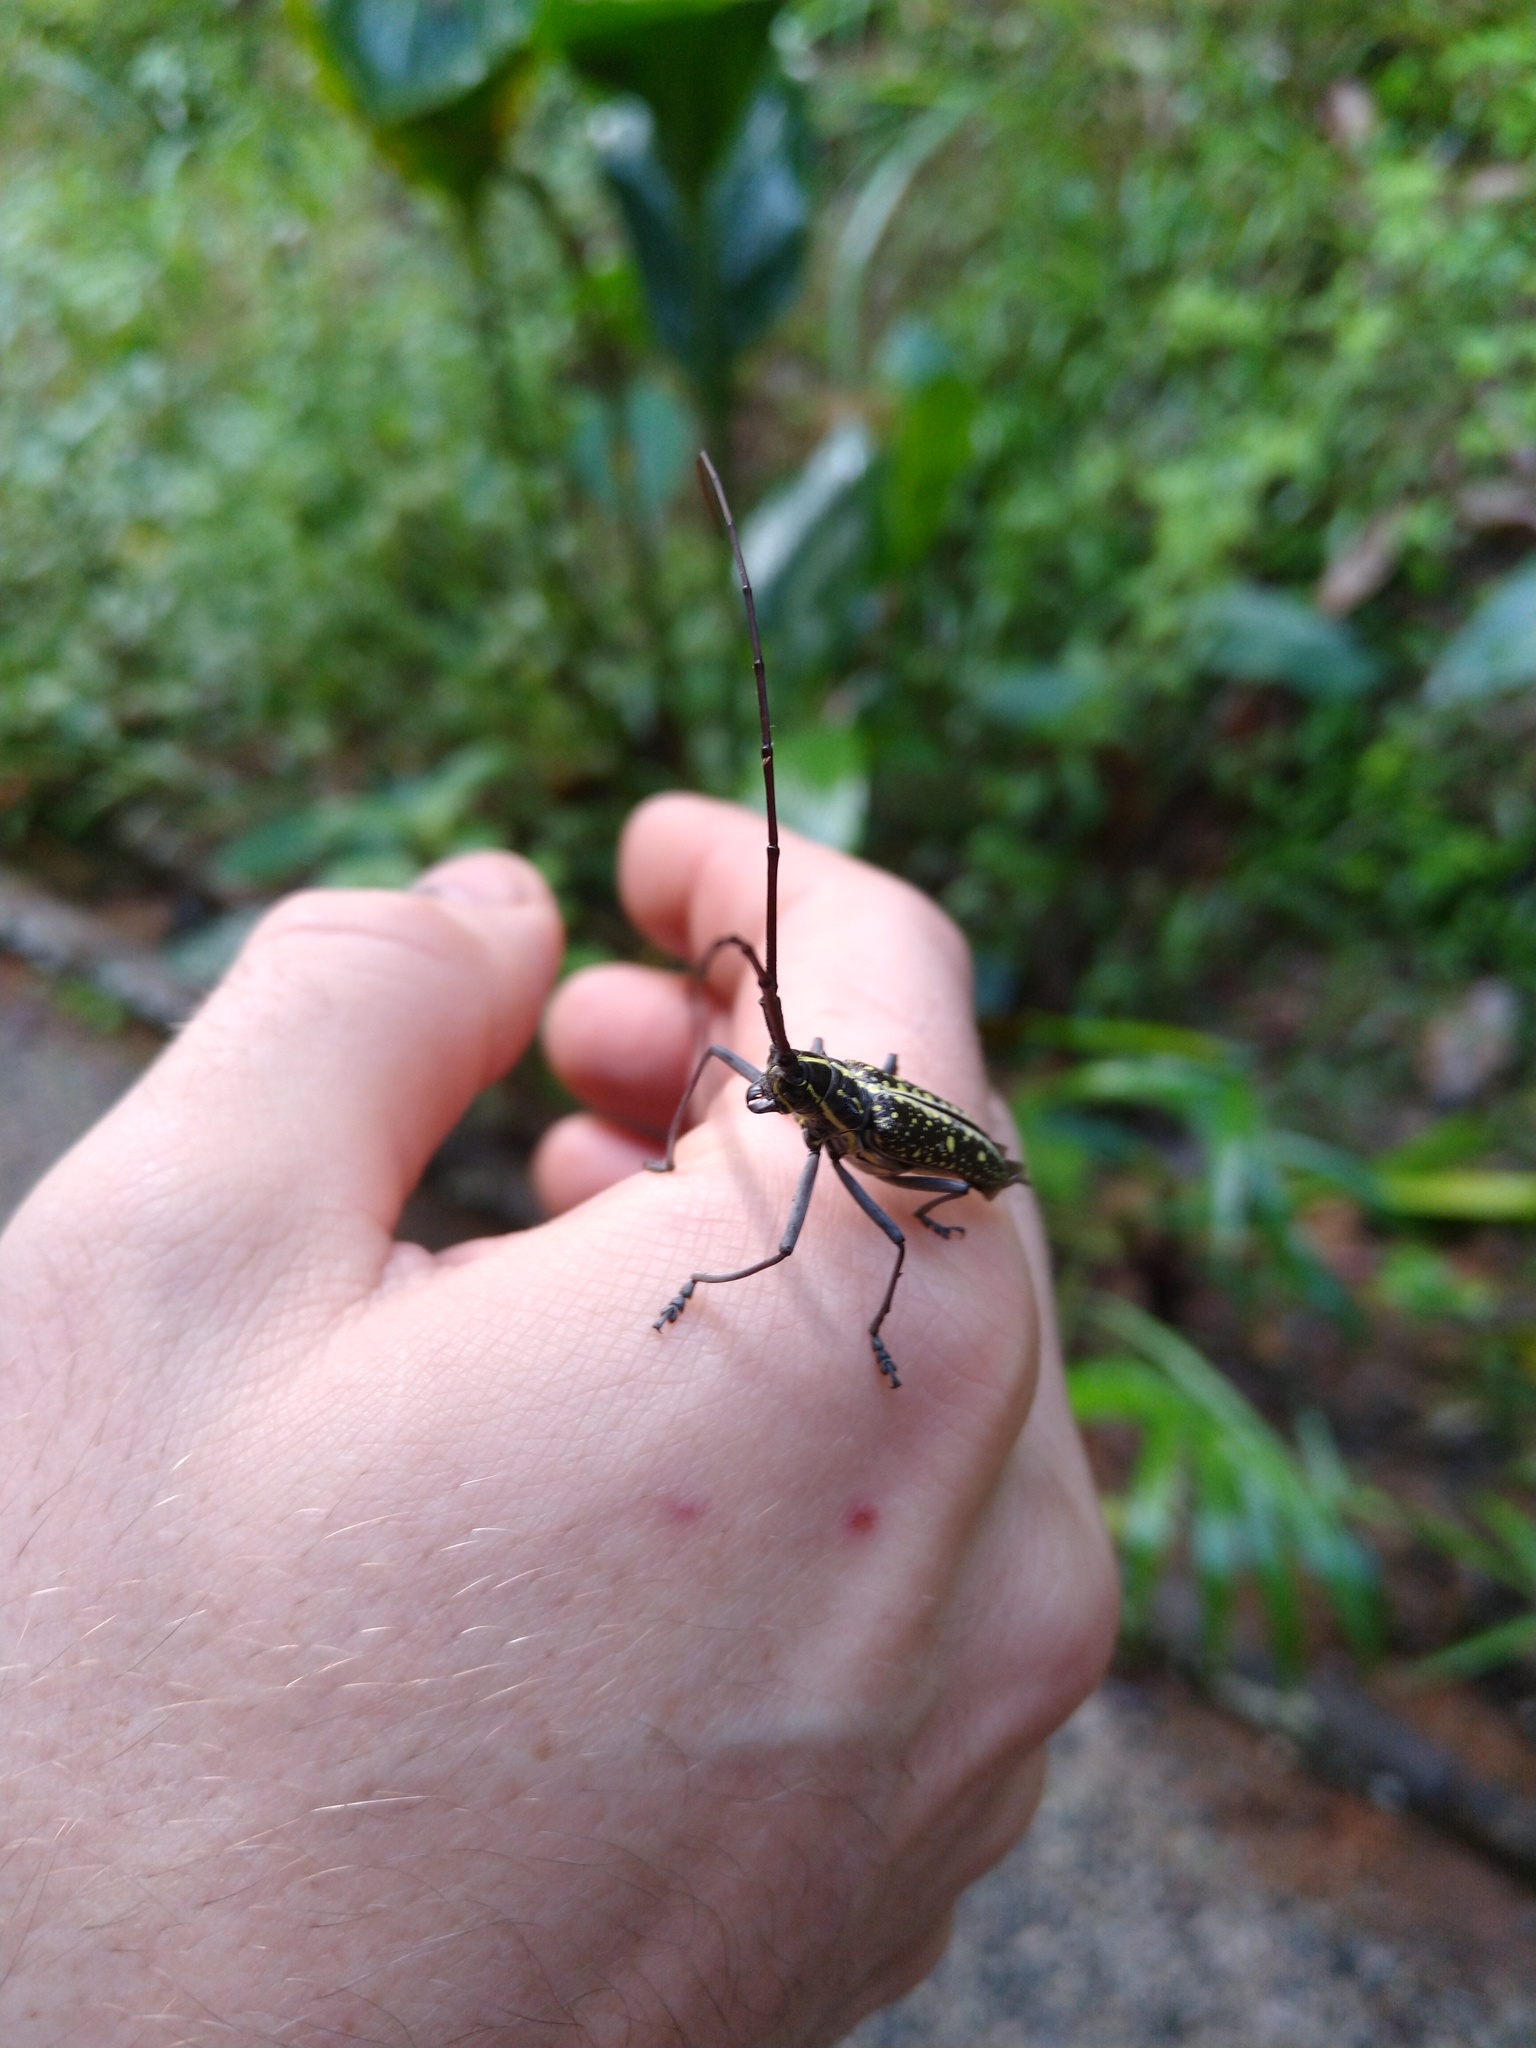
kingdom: Animalia
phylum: Arthropoda
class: Insecta
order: Coleoptera
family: Cerambycidae
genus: Taeniotes
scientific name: Taeniotes amazonum
